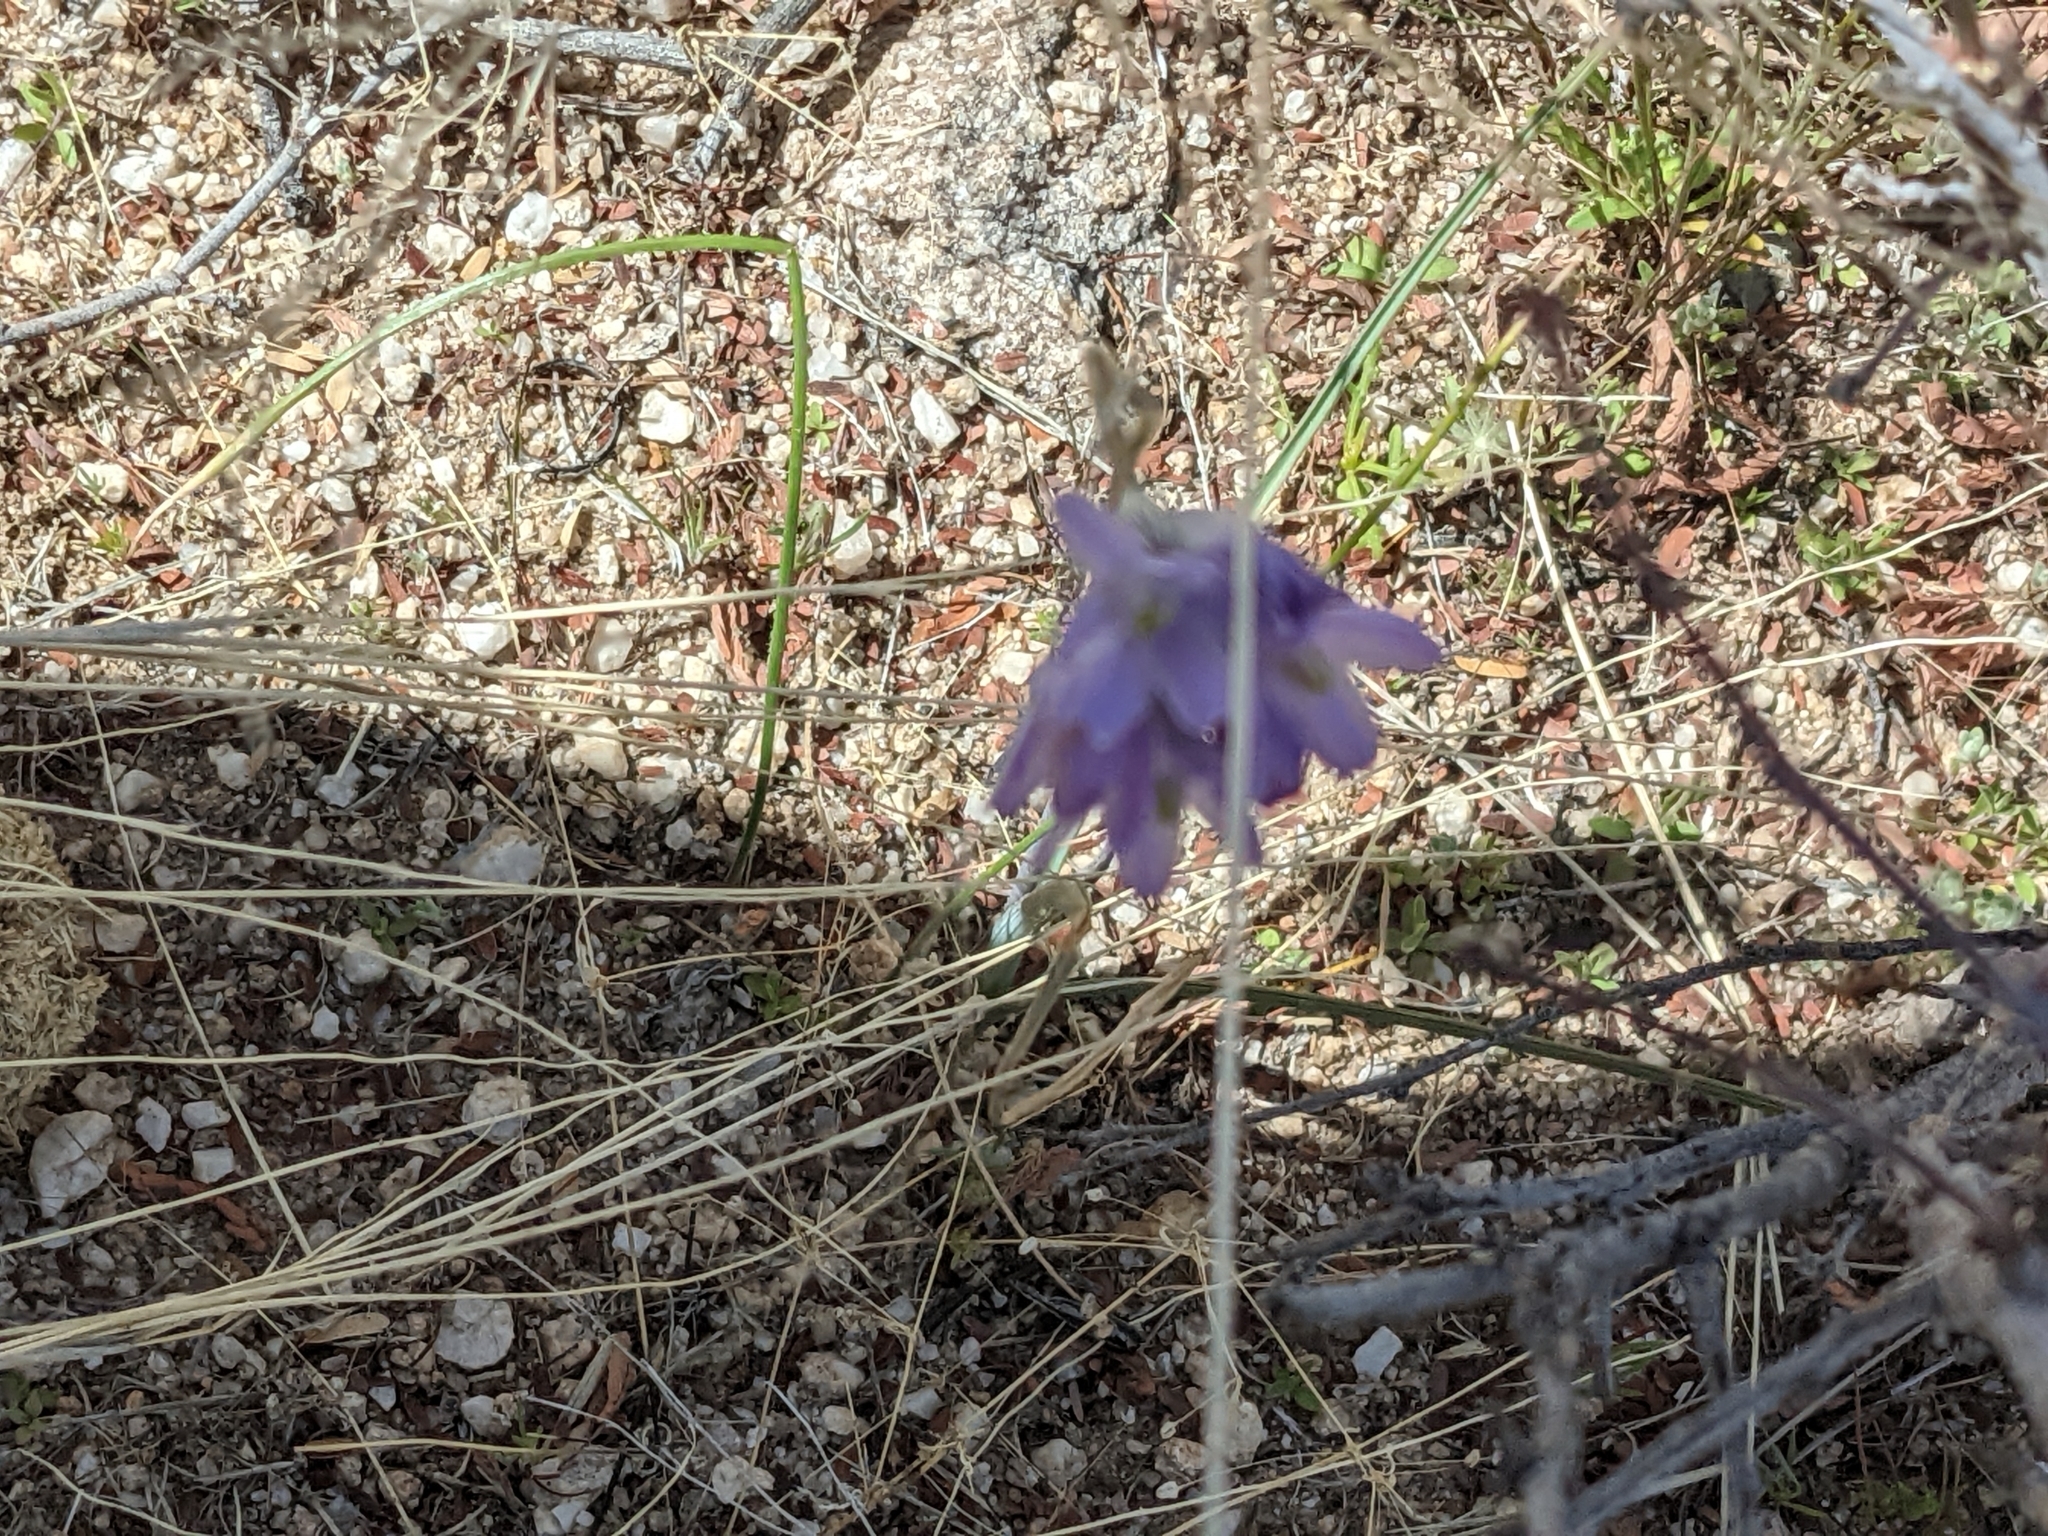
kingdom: Plantae
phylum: Tracheophyta
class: Liliopsida
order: Asparagales
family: Asparagaceae
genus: Dipterostemon
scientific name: Dipterostemon capitatus
